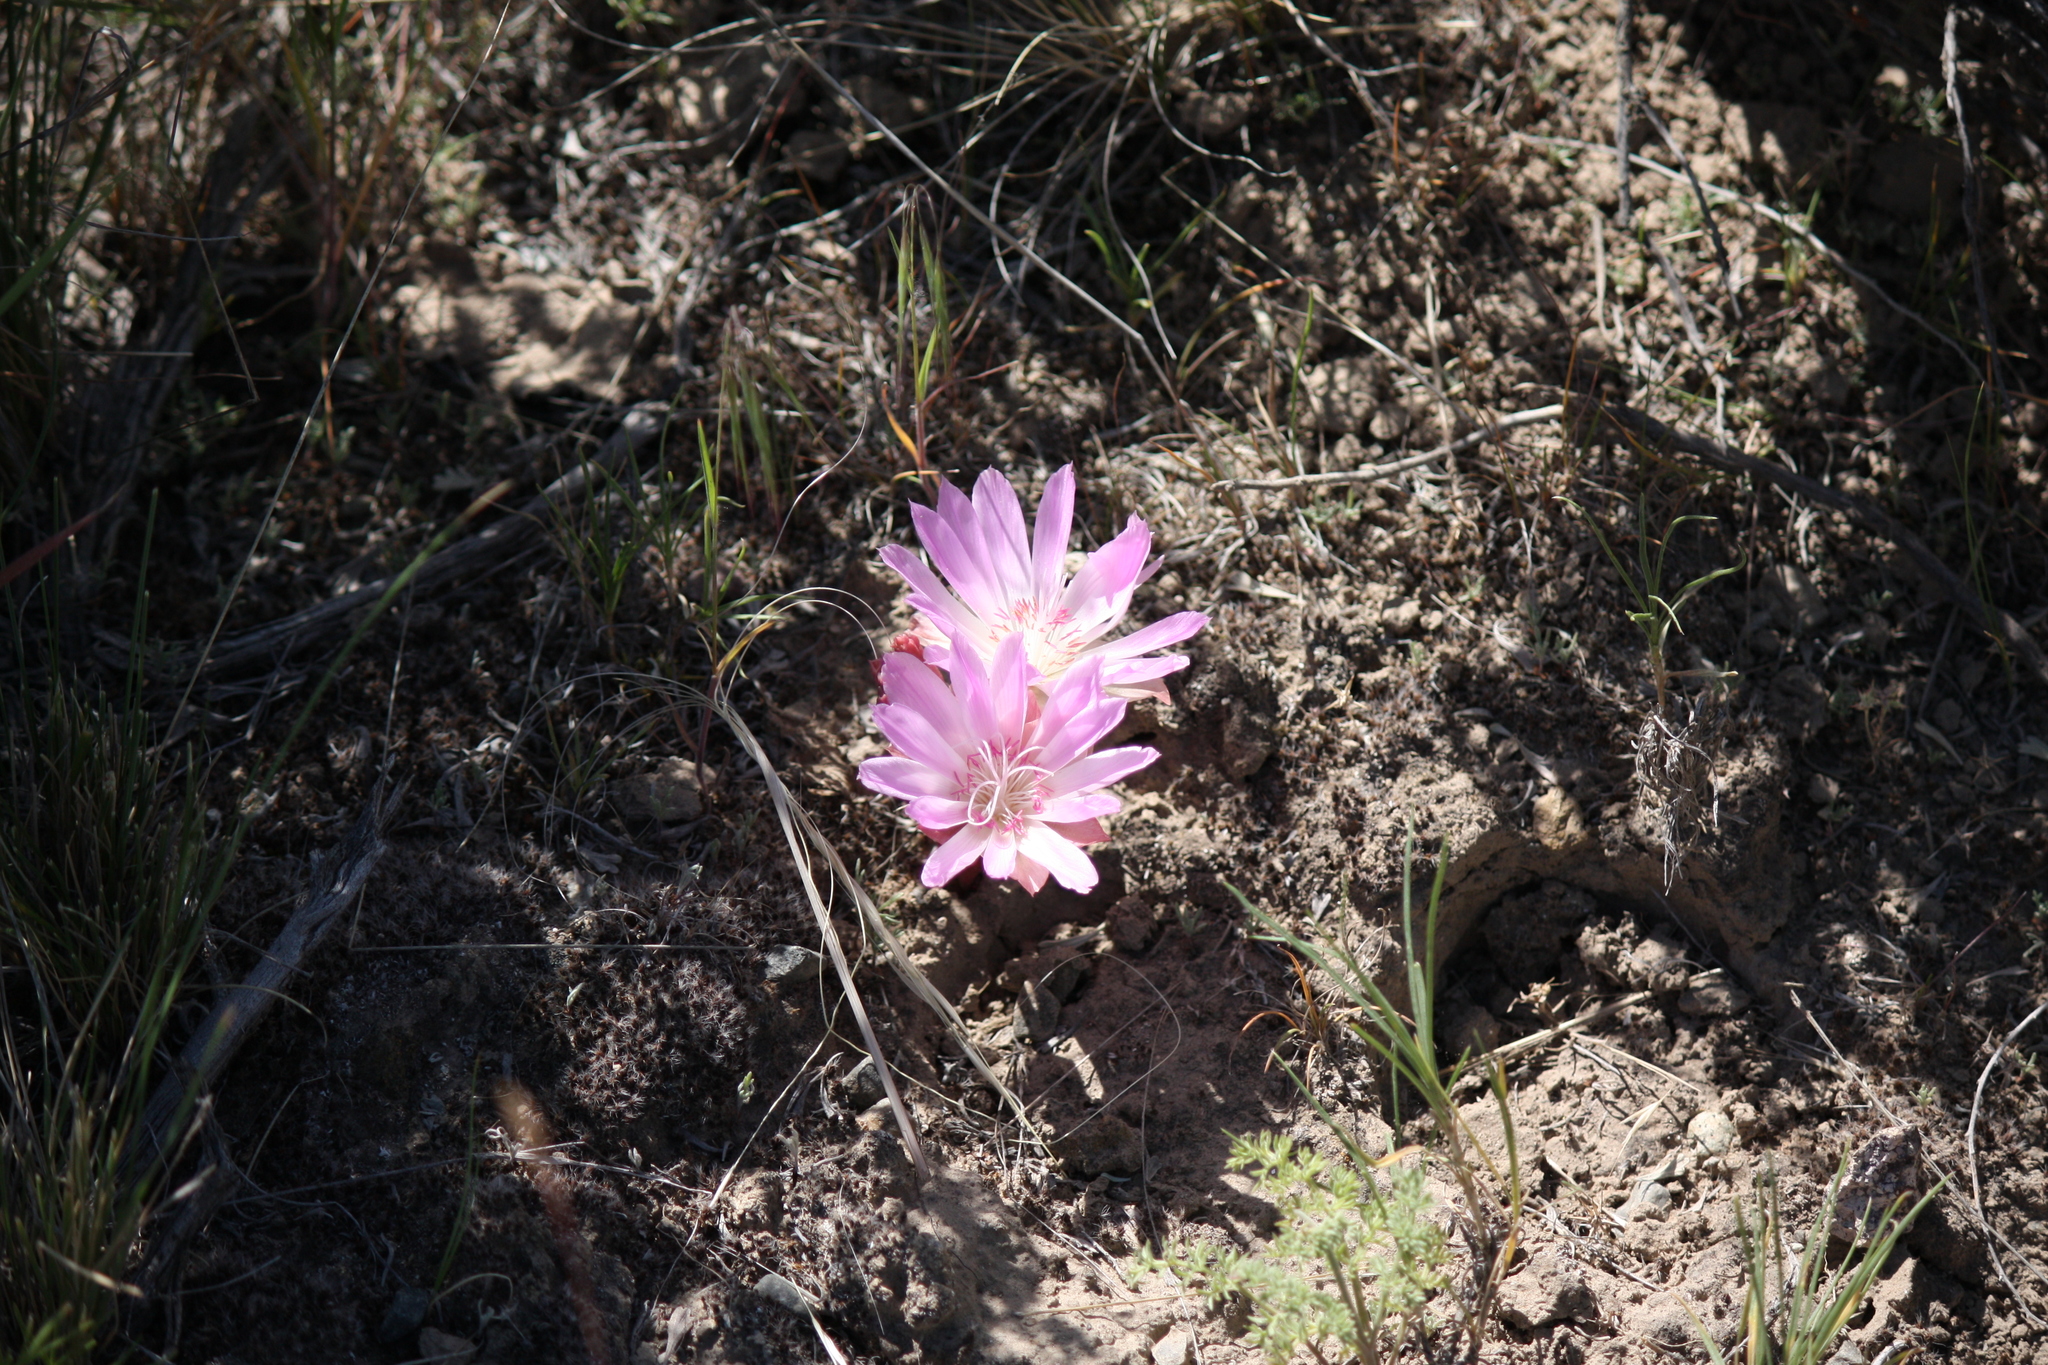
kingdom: Plantae
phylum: Tracheophyta
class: Magnoliopsida
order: Caryophyllales
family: Montiaceae
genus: Lewisia
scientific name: Lewisia rediviva
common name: Bitter-root
